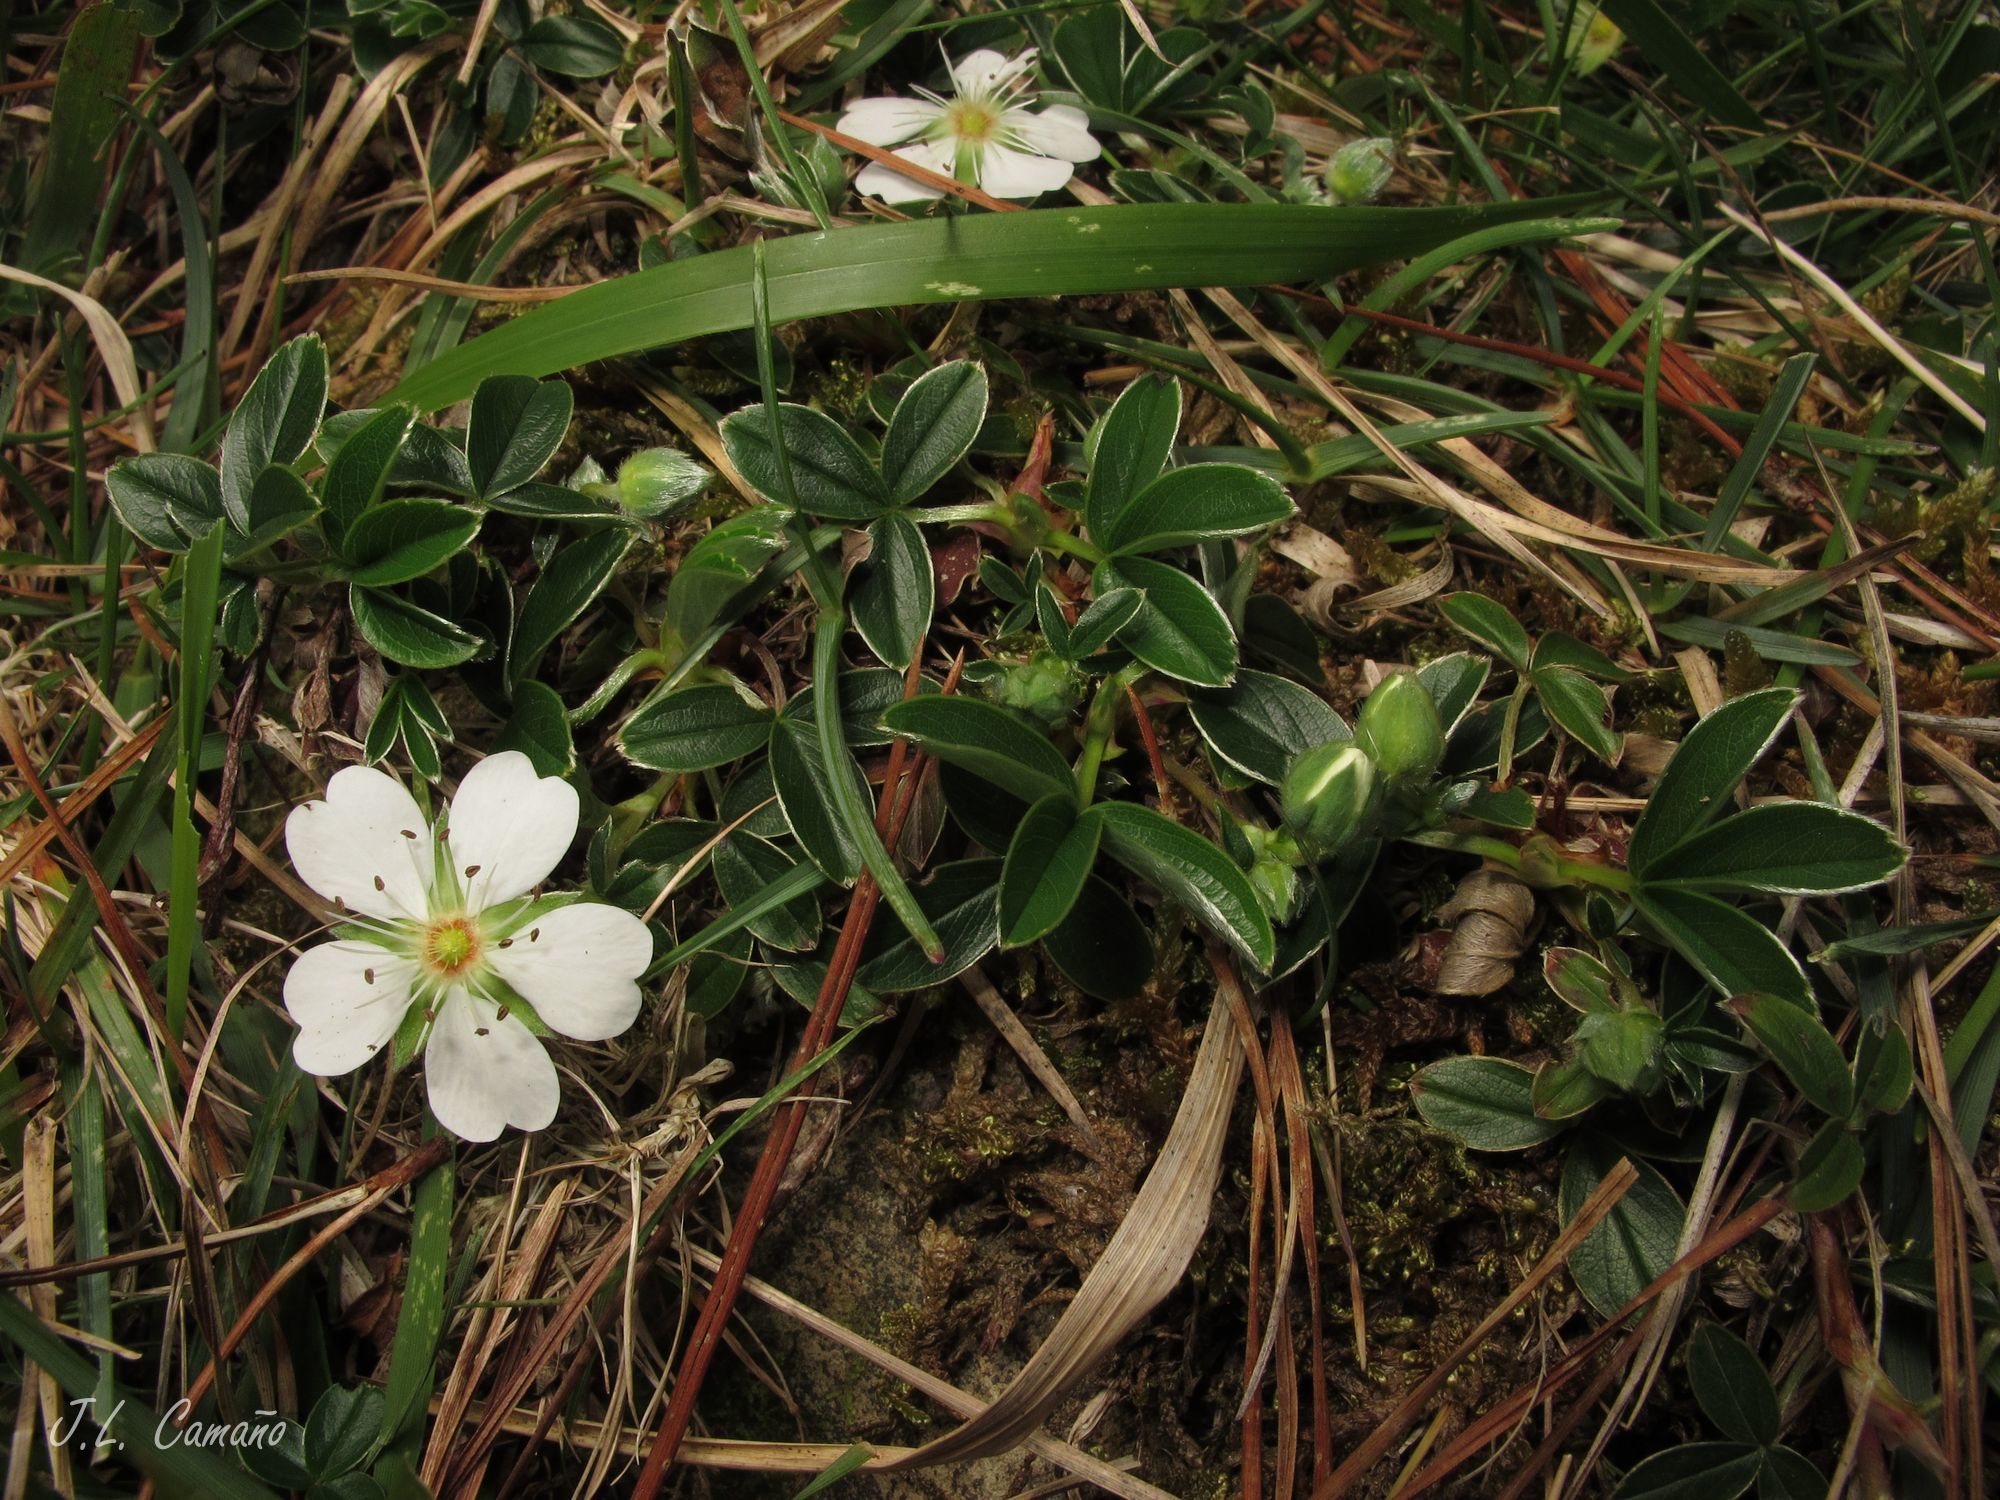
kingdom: Plantae
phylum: Tracheophyta
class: Magnoliopsida
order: Rosales
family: Rosaceae
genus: Potentilla
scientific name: Potentilla montana
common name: Mountain cinquefoil
